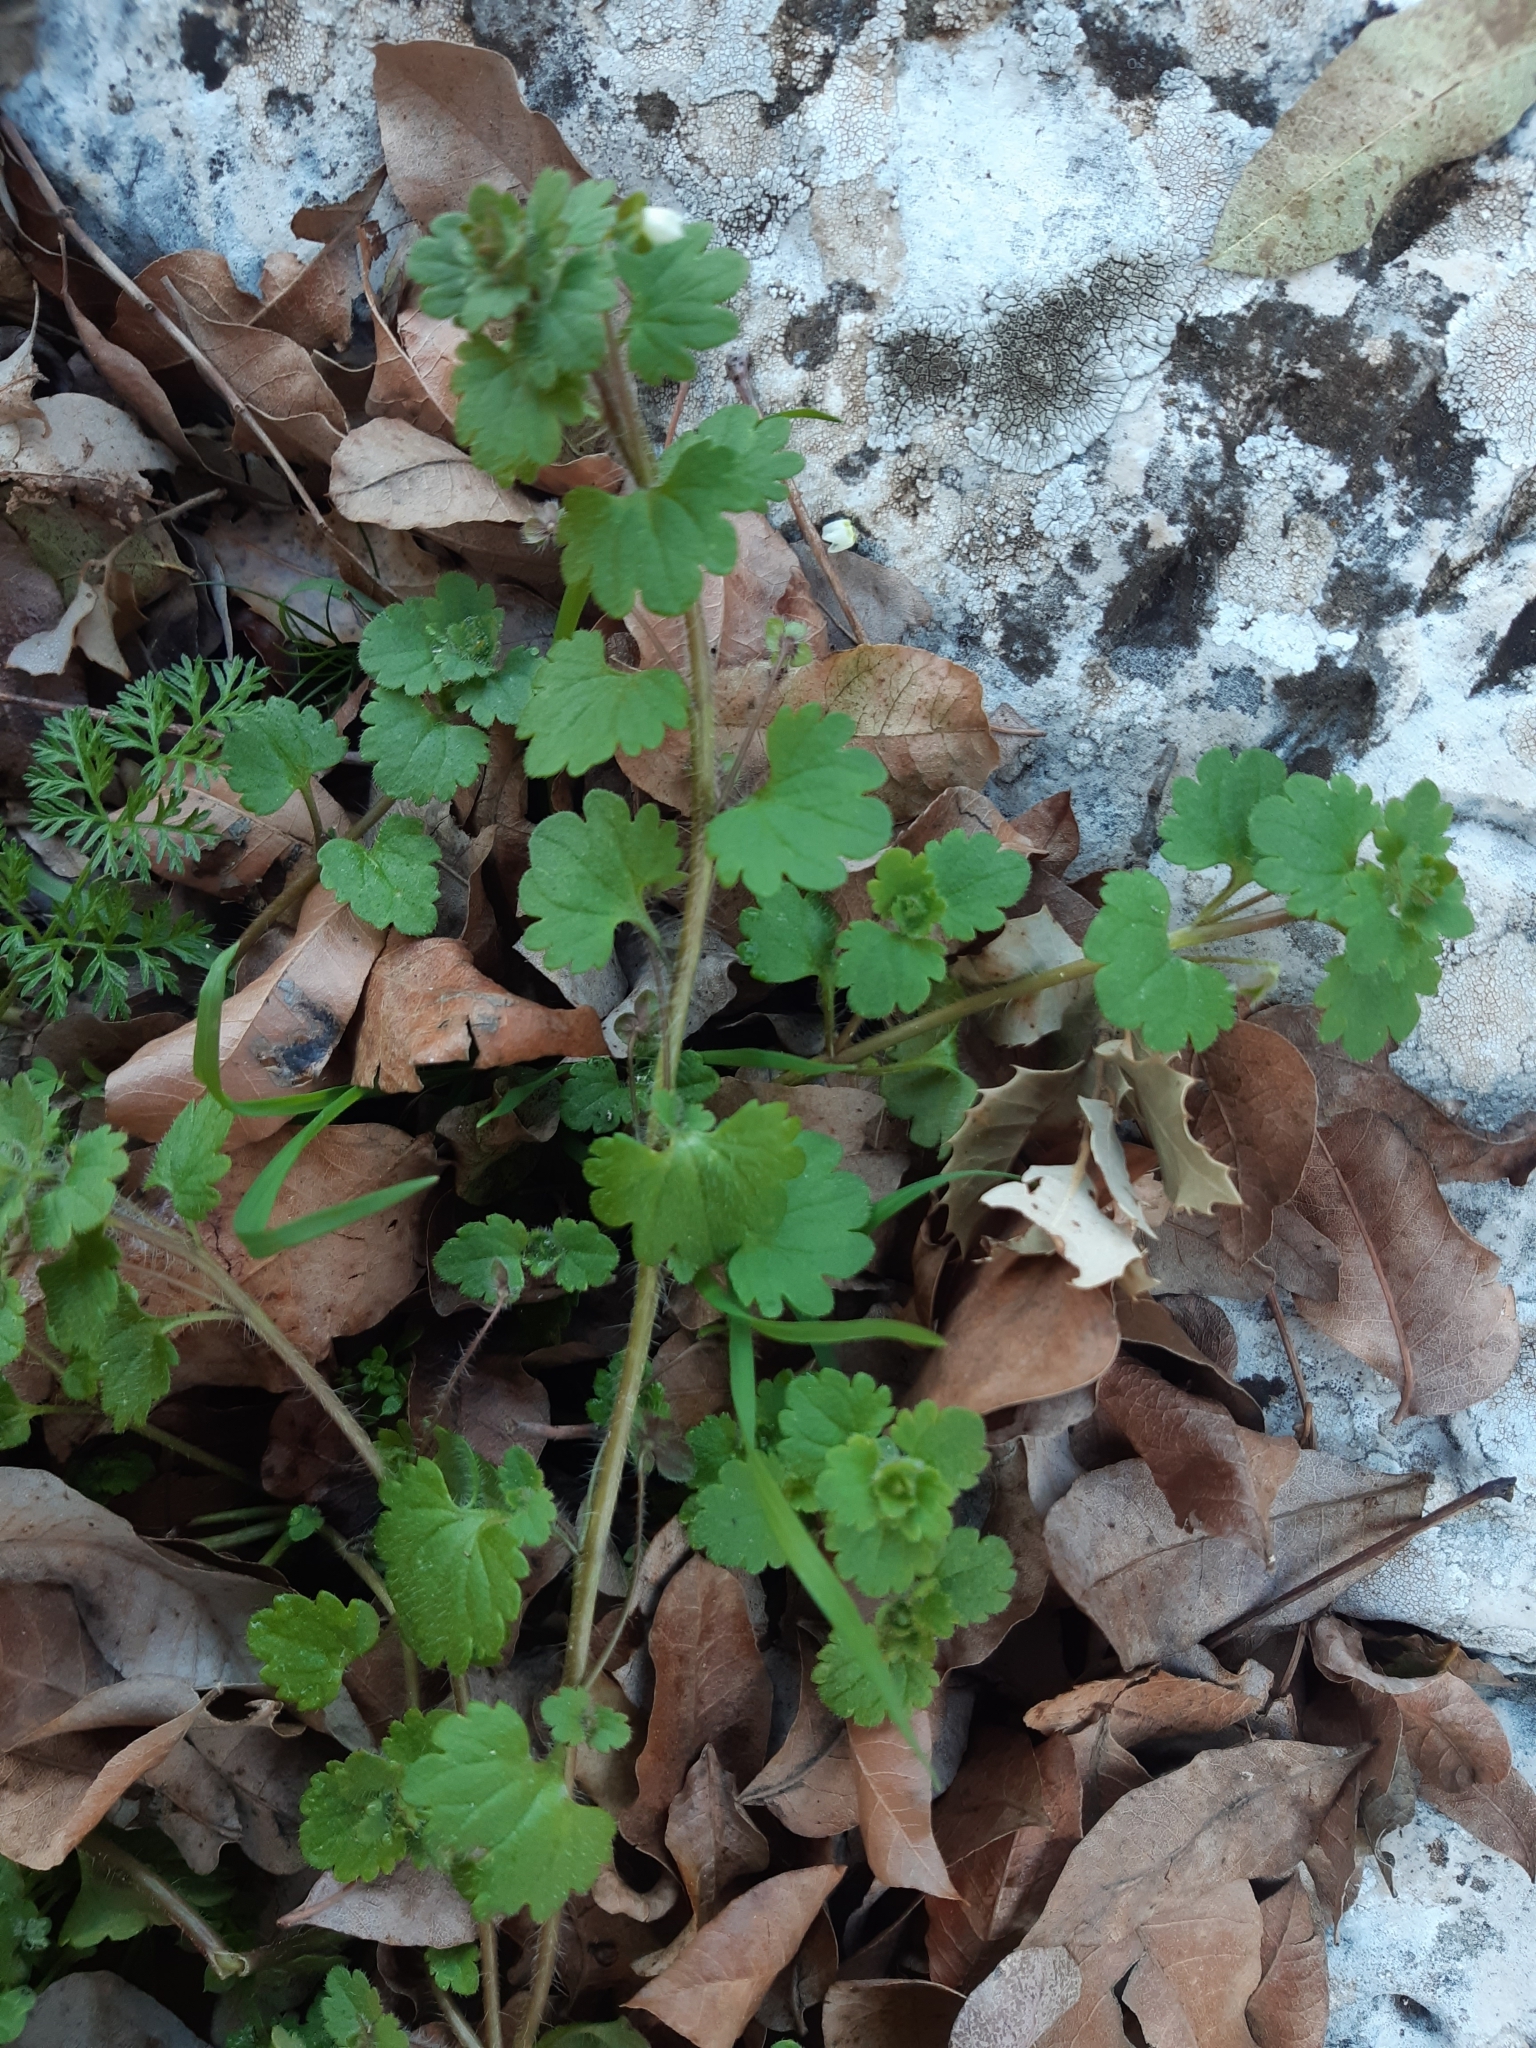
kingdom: Plantae
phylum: Tracheophyta
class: Magnoliopsida
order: Lamiales
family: Plantaginaceae
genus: Veronica
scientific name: Veronica cymbalaria
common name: Pale speedwell
